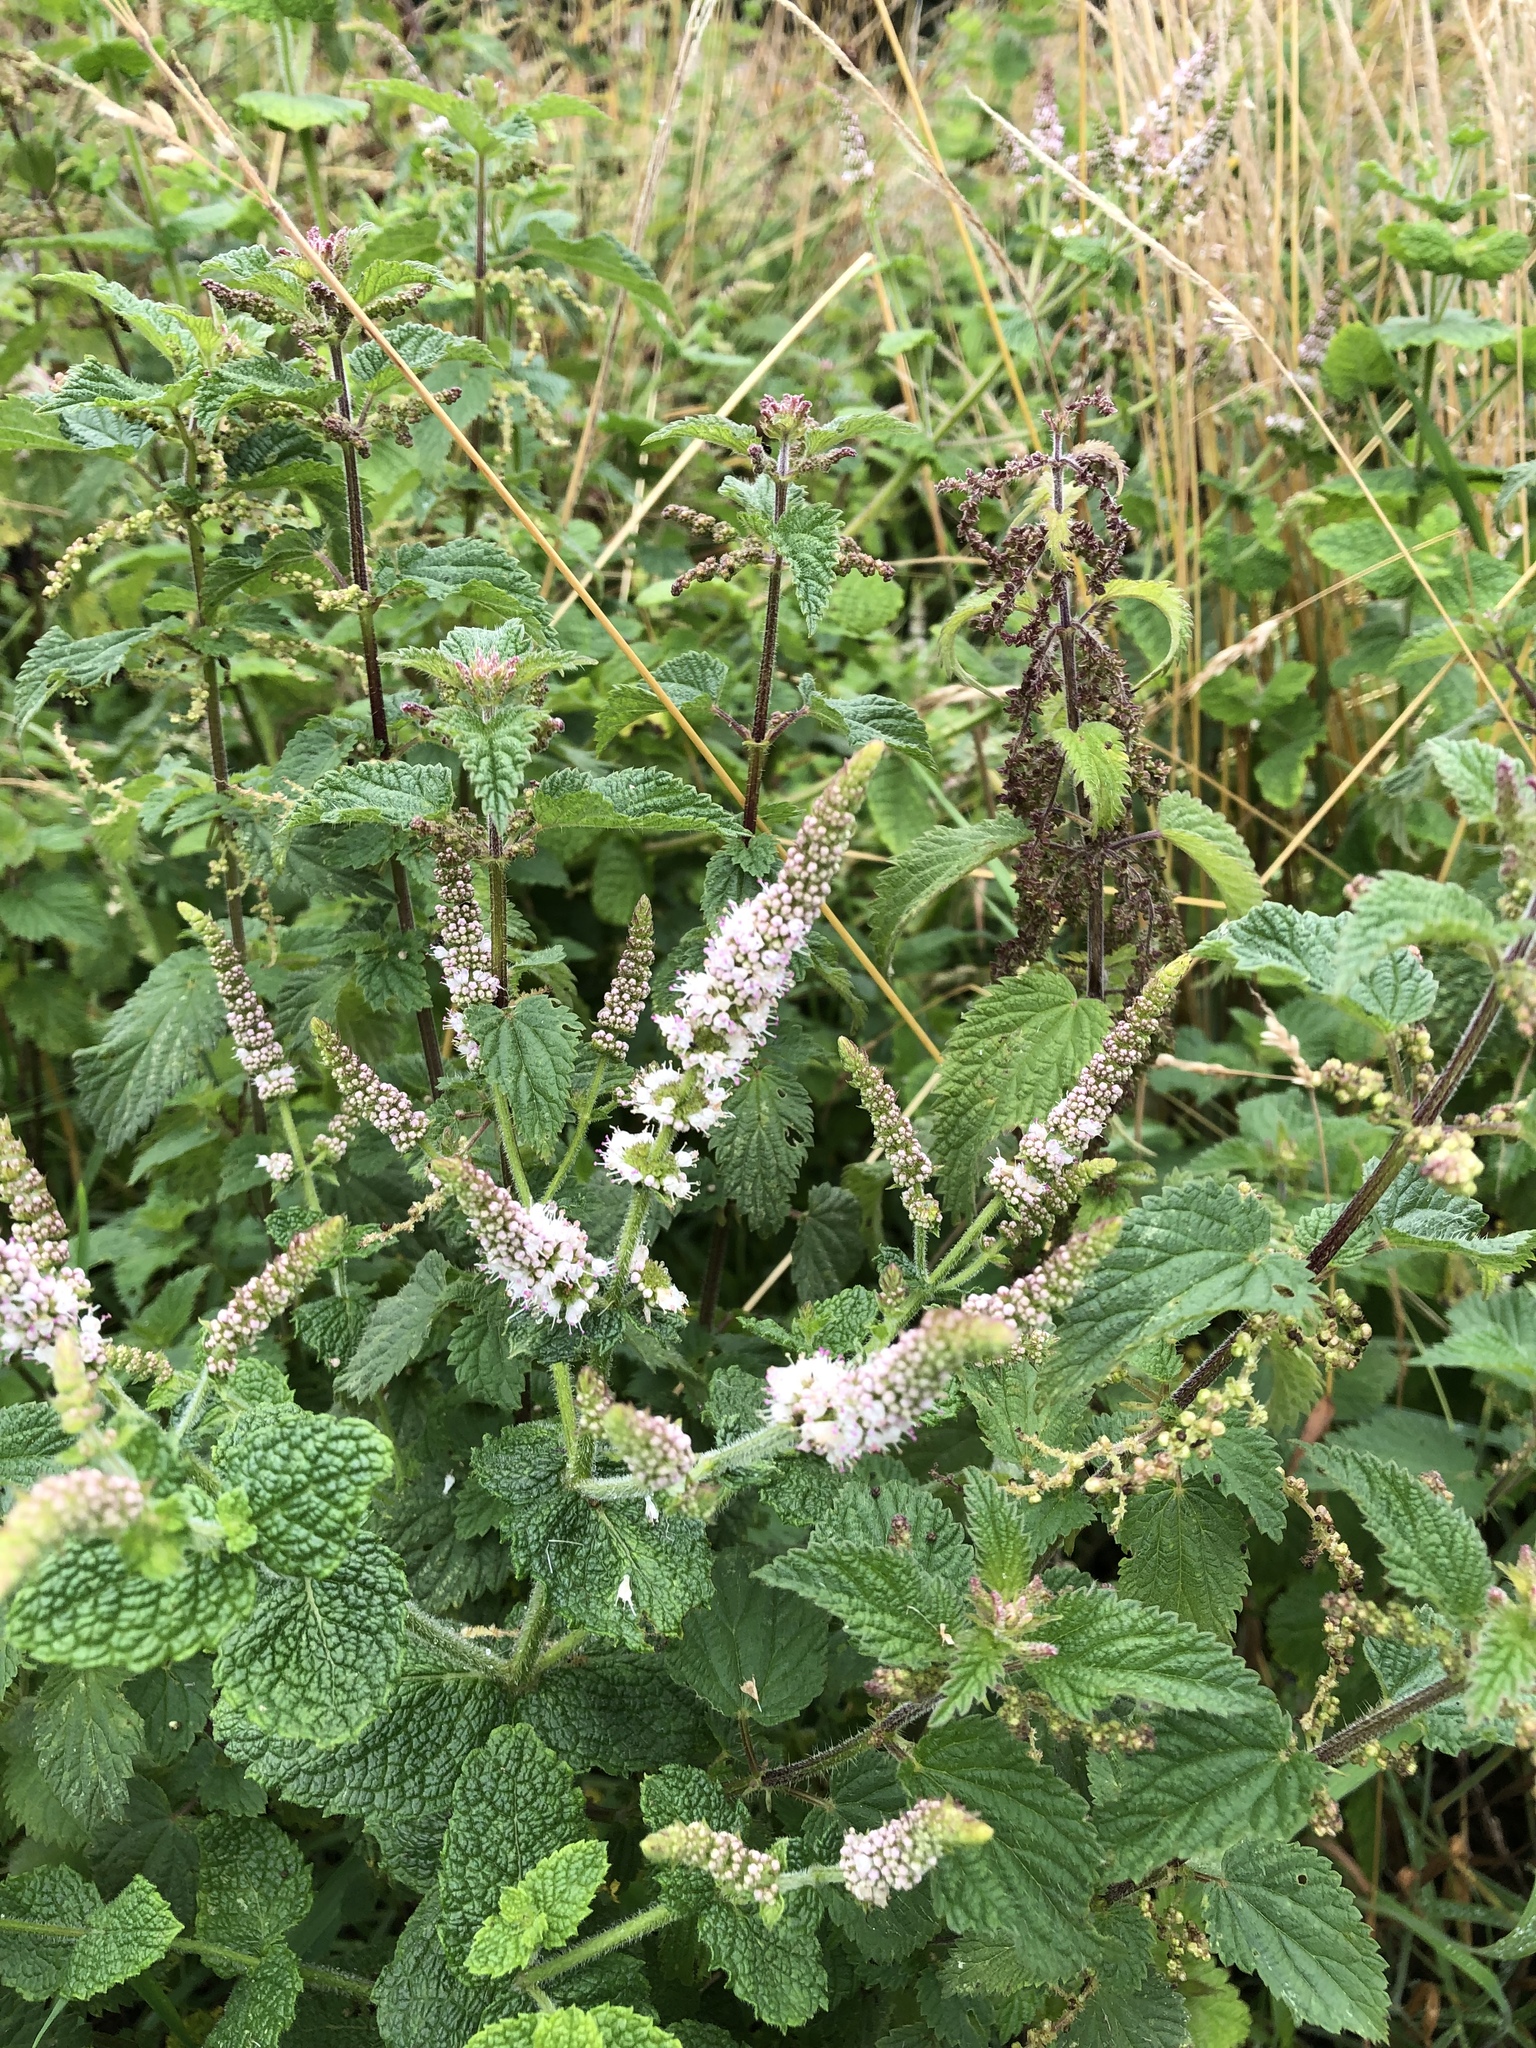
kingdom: Plantae
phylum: Tracheophyta
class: Magnoliopsida
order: Lamiales
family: Lamiaceae
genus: Mentha
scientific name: Mentha villosa
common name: Apple mint
